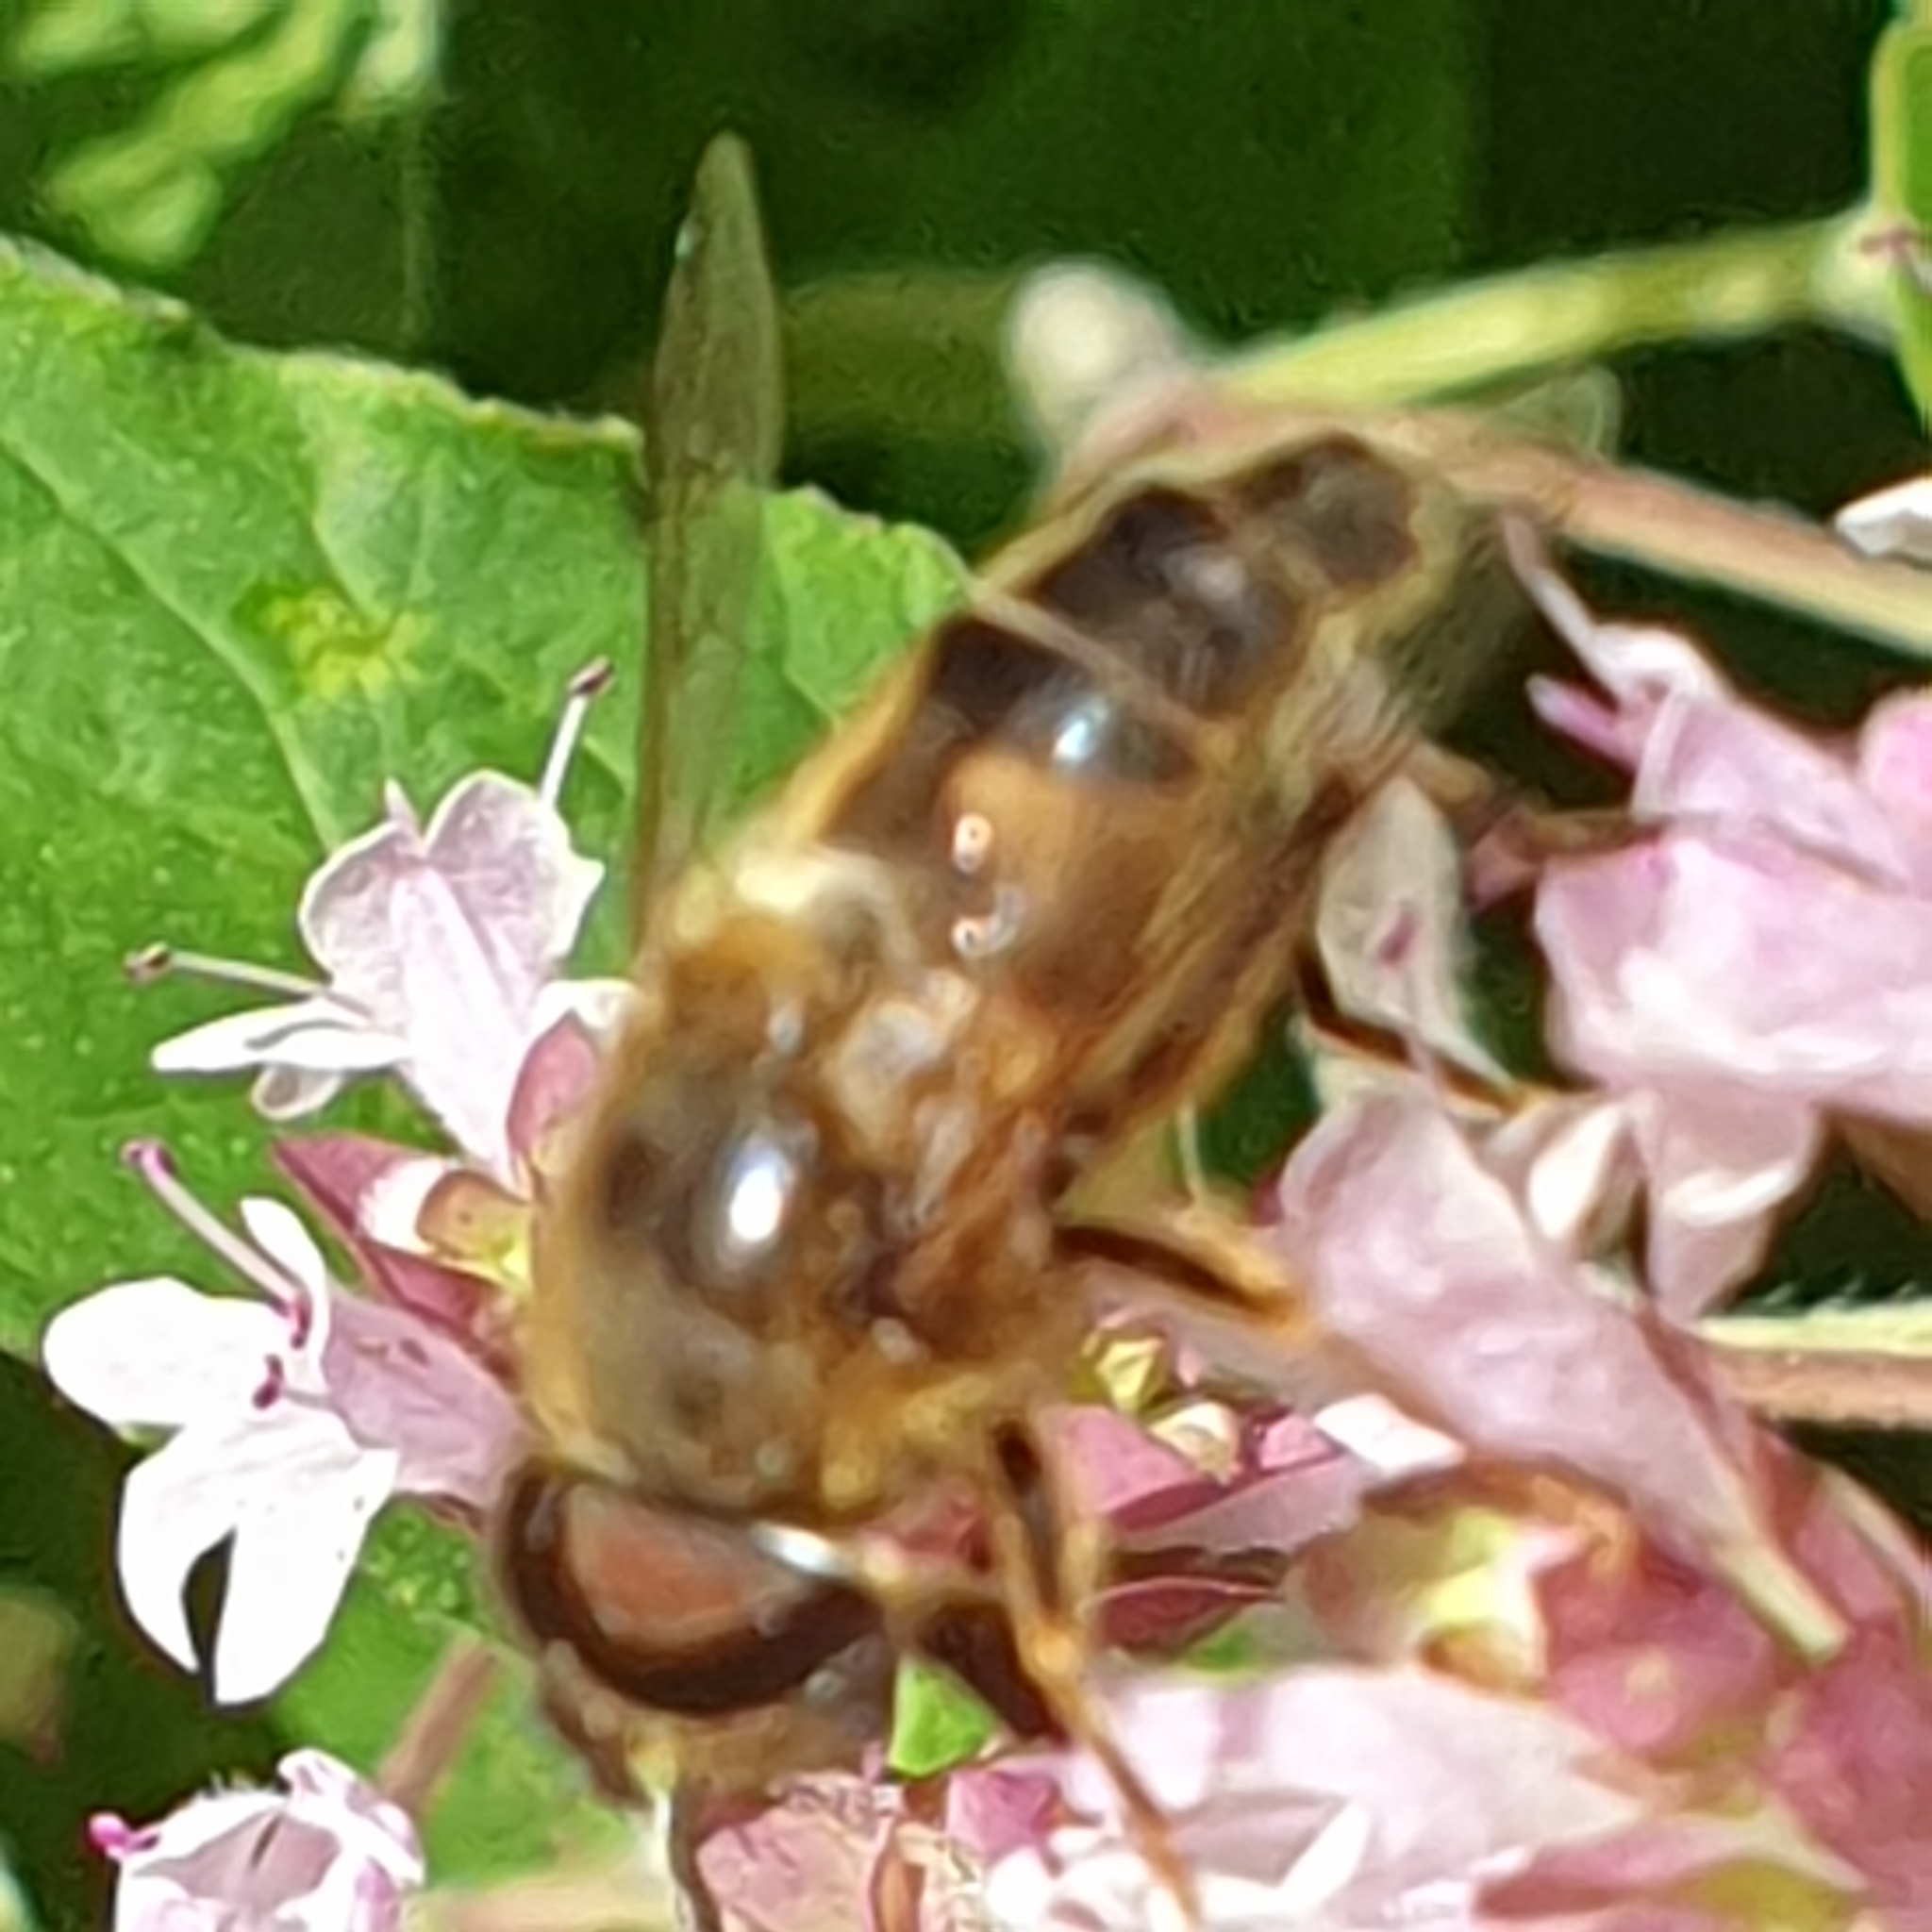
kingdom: Animalia
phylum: Arthropoda
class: Insecta
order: Diptera
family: Syrphidae
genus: Eristalis
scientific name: Eristalis pertinax
